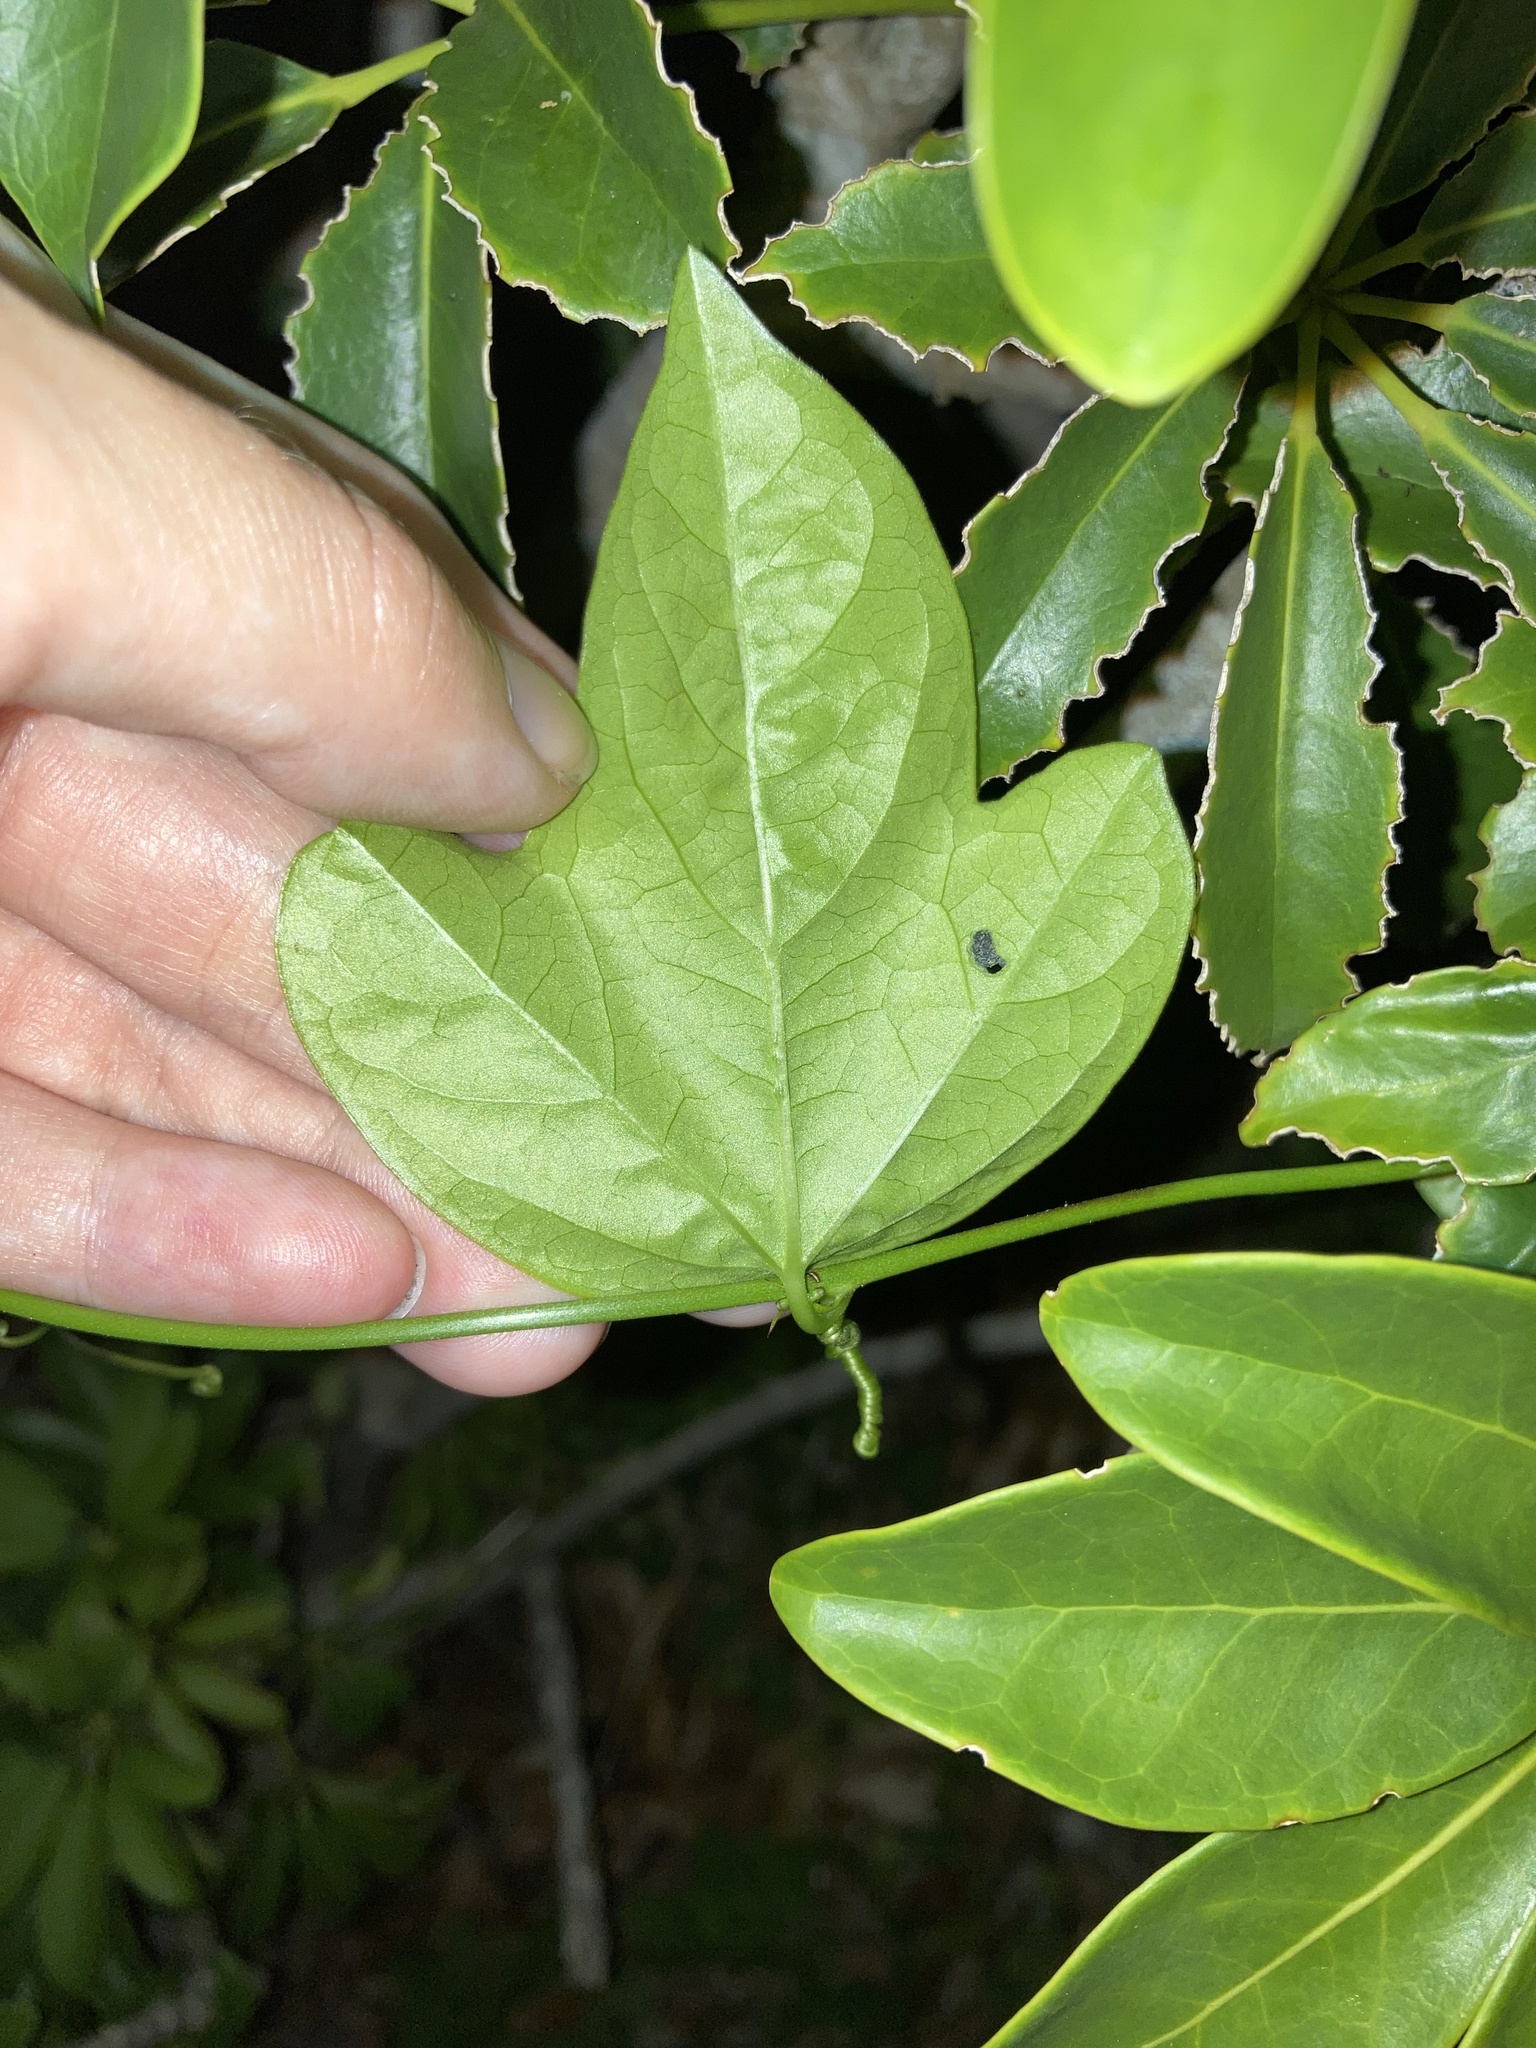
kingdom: Plantae
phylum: Tracheophyta
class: Magnoliopsida
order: Malpighiales
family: Passifloraceae
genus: Passiflora
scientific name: Passiflora pallida
